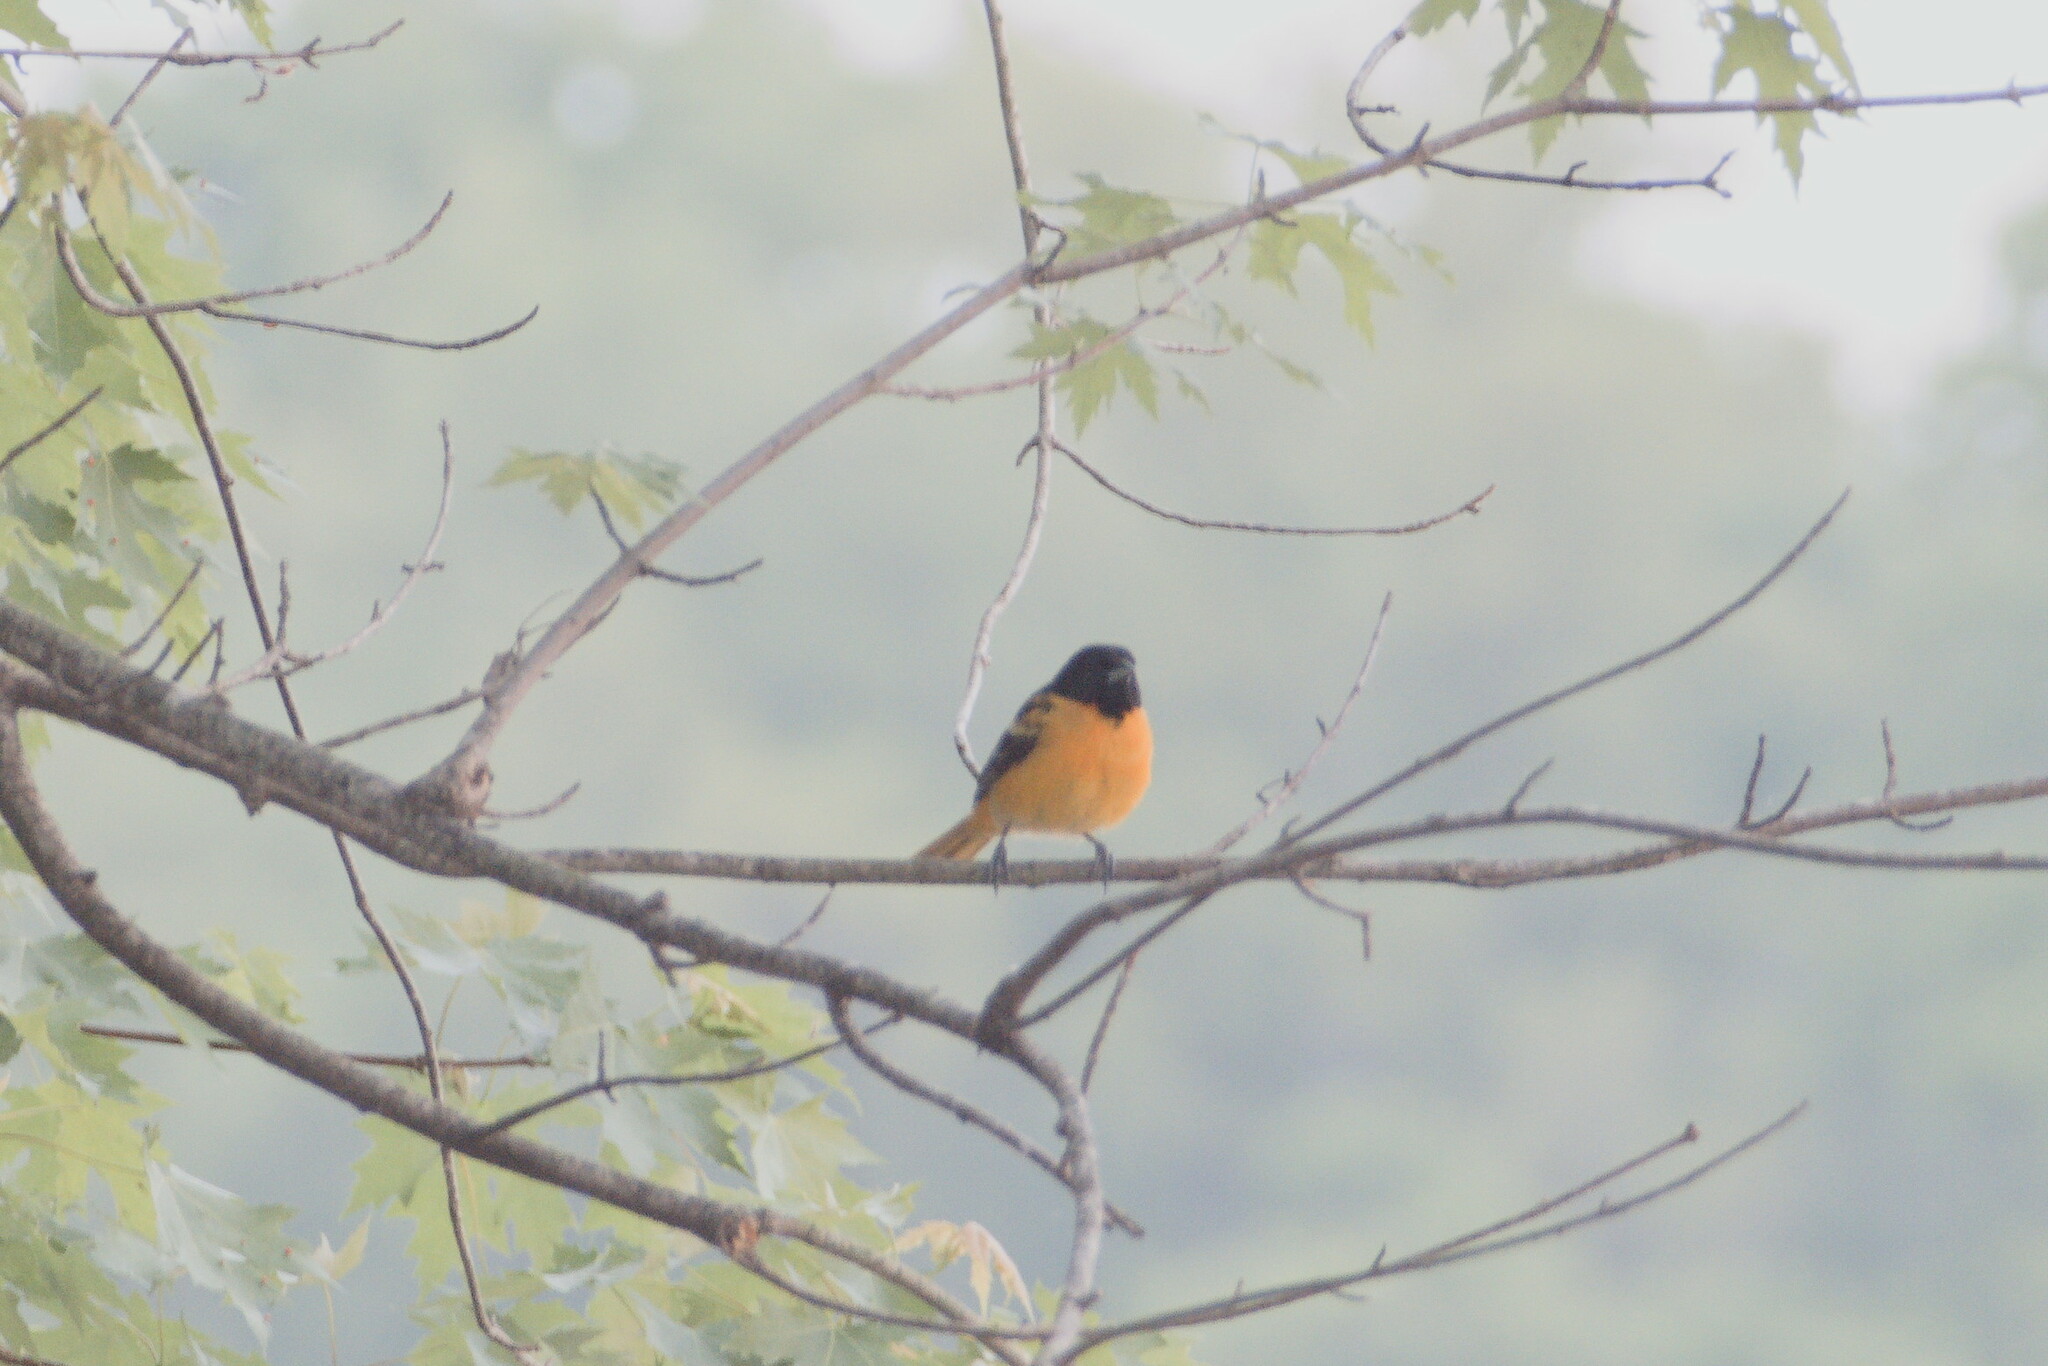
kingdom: Animalia
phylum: Chordata
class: Aves
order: Passeriformes
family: Icteridae
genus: Icterus
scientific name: Icterus galbula
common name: Baltimore oriole
